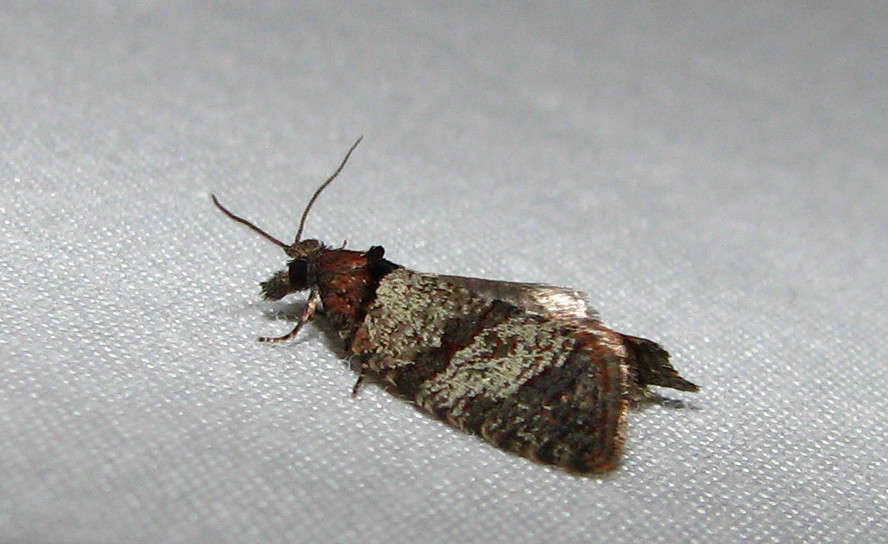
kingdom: Animalia
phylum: Arthropoda
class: Insecta
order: Lepidoptera
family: Tortricidae
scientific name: Tortricidae
